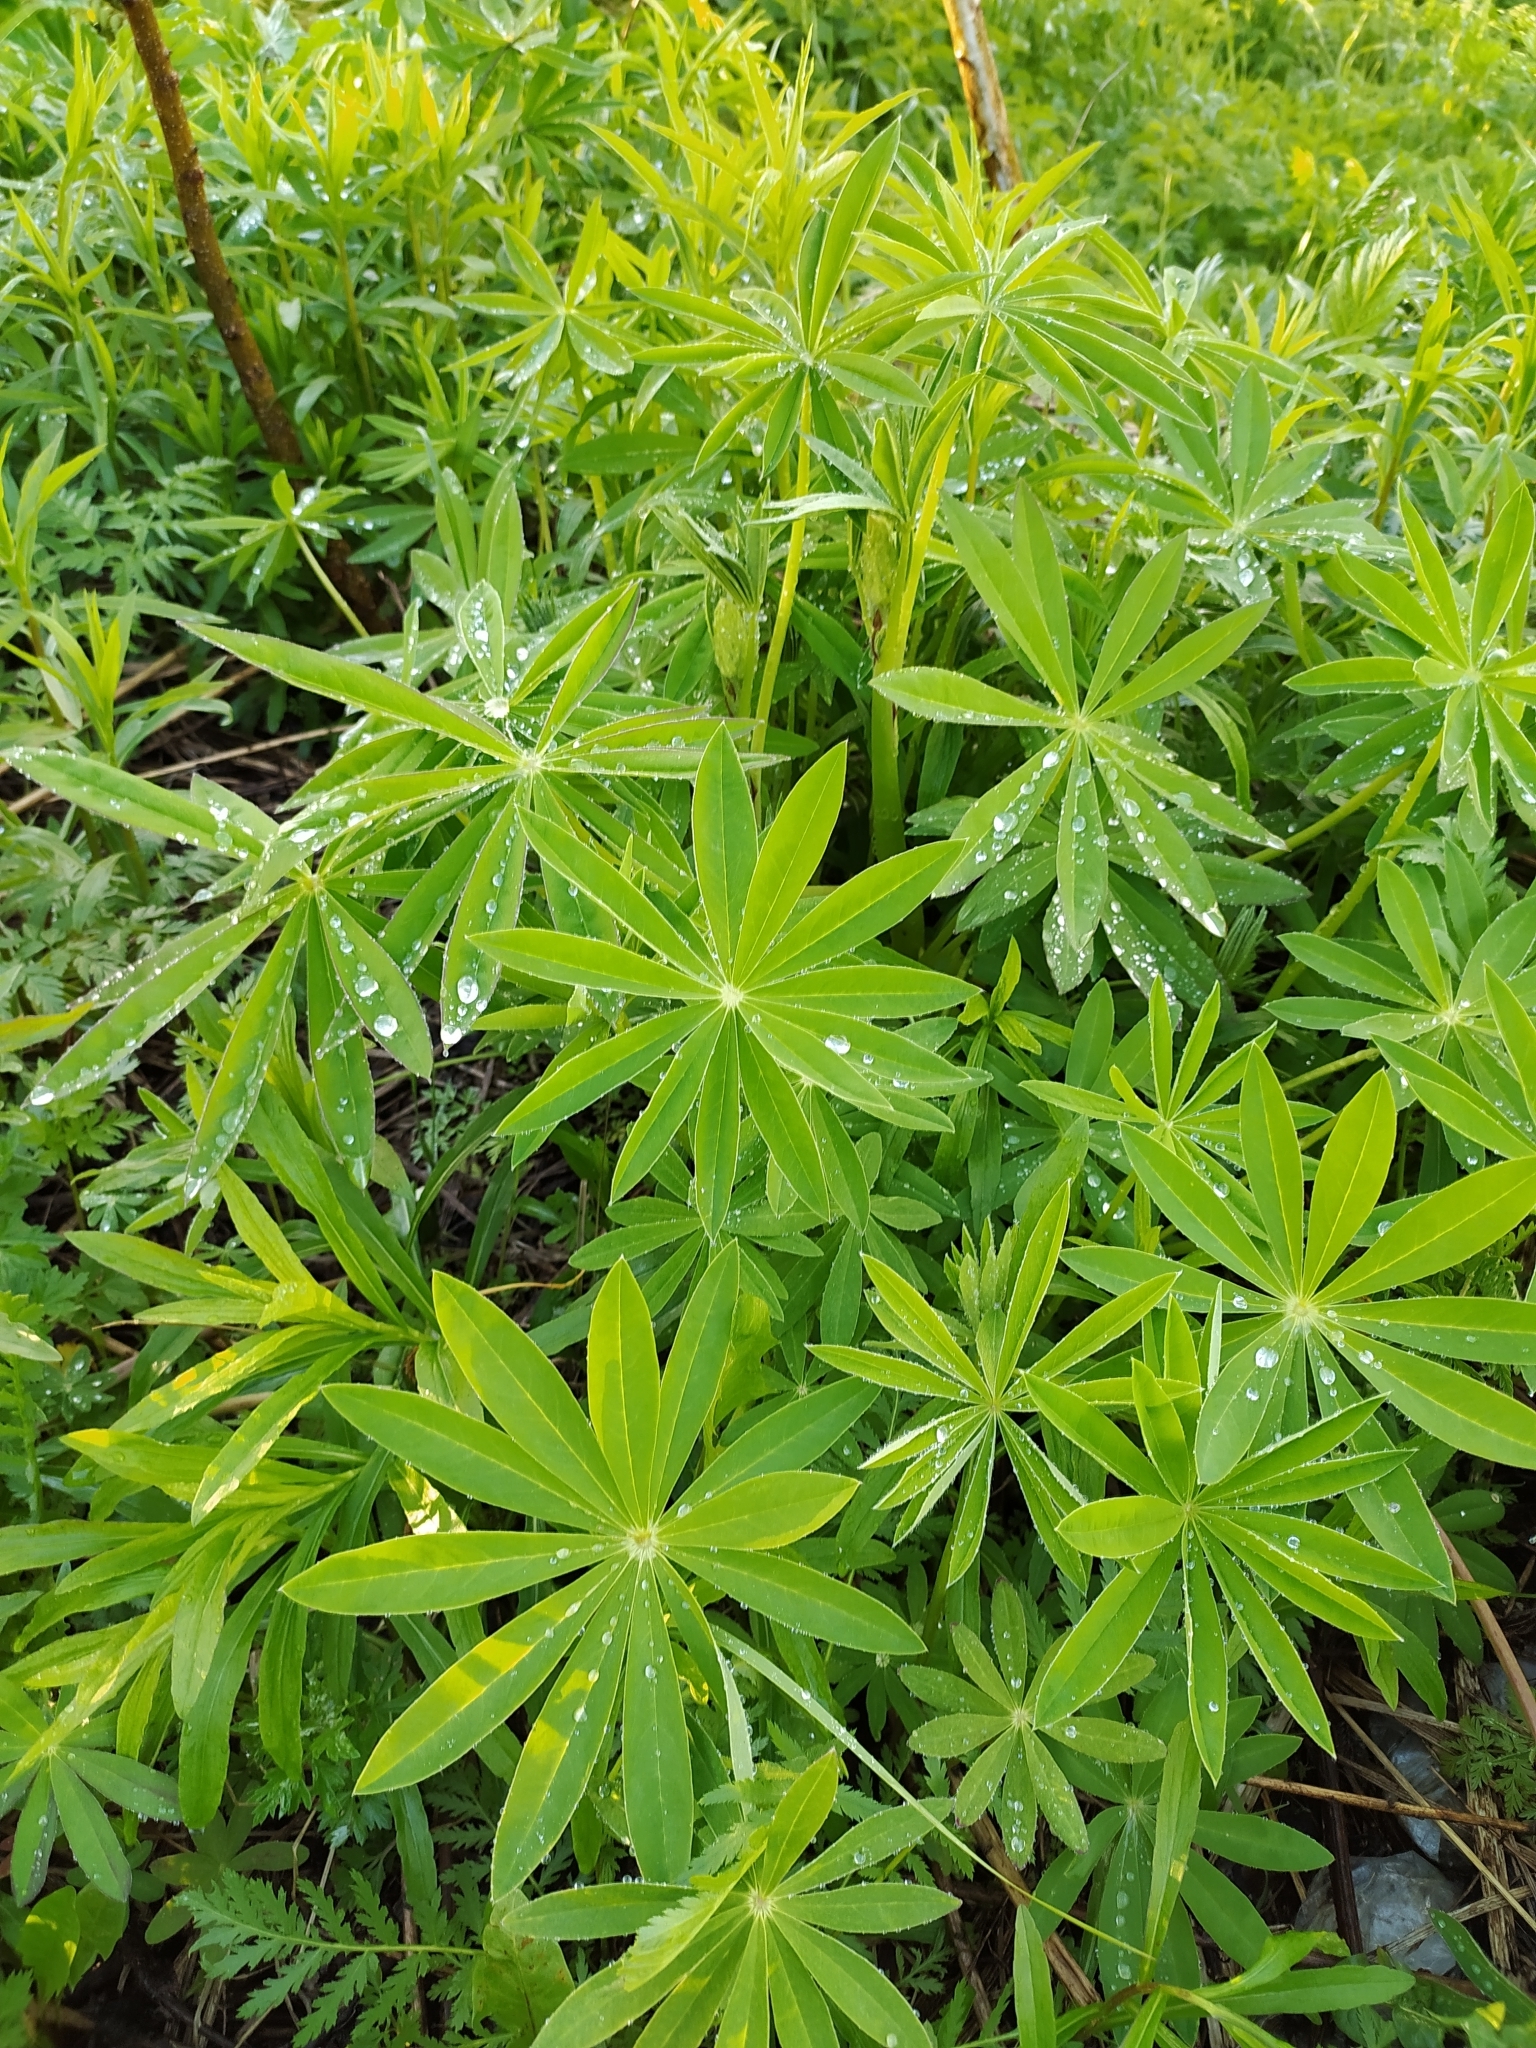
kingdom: Plantae
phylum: Tracheophyta
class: Magnoliopsida
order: Fabales
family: Fabaceae
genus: Lupinus
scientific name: Lupinus polyphyllus
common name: Garden lupin
